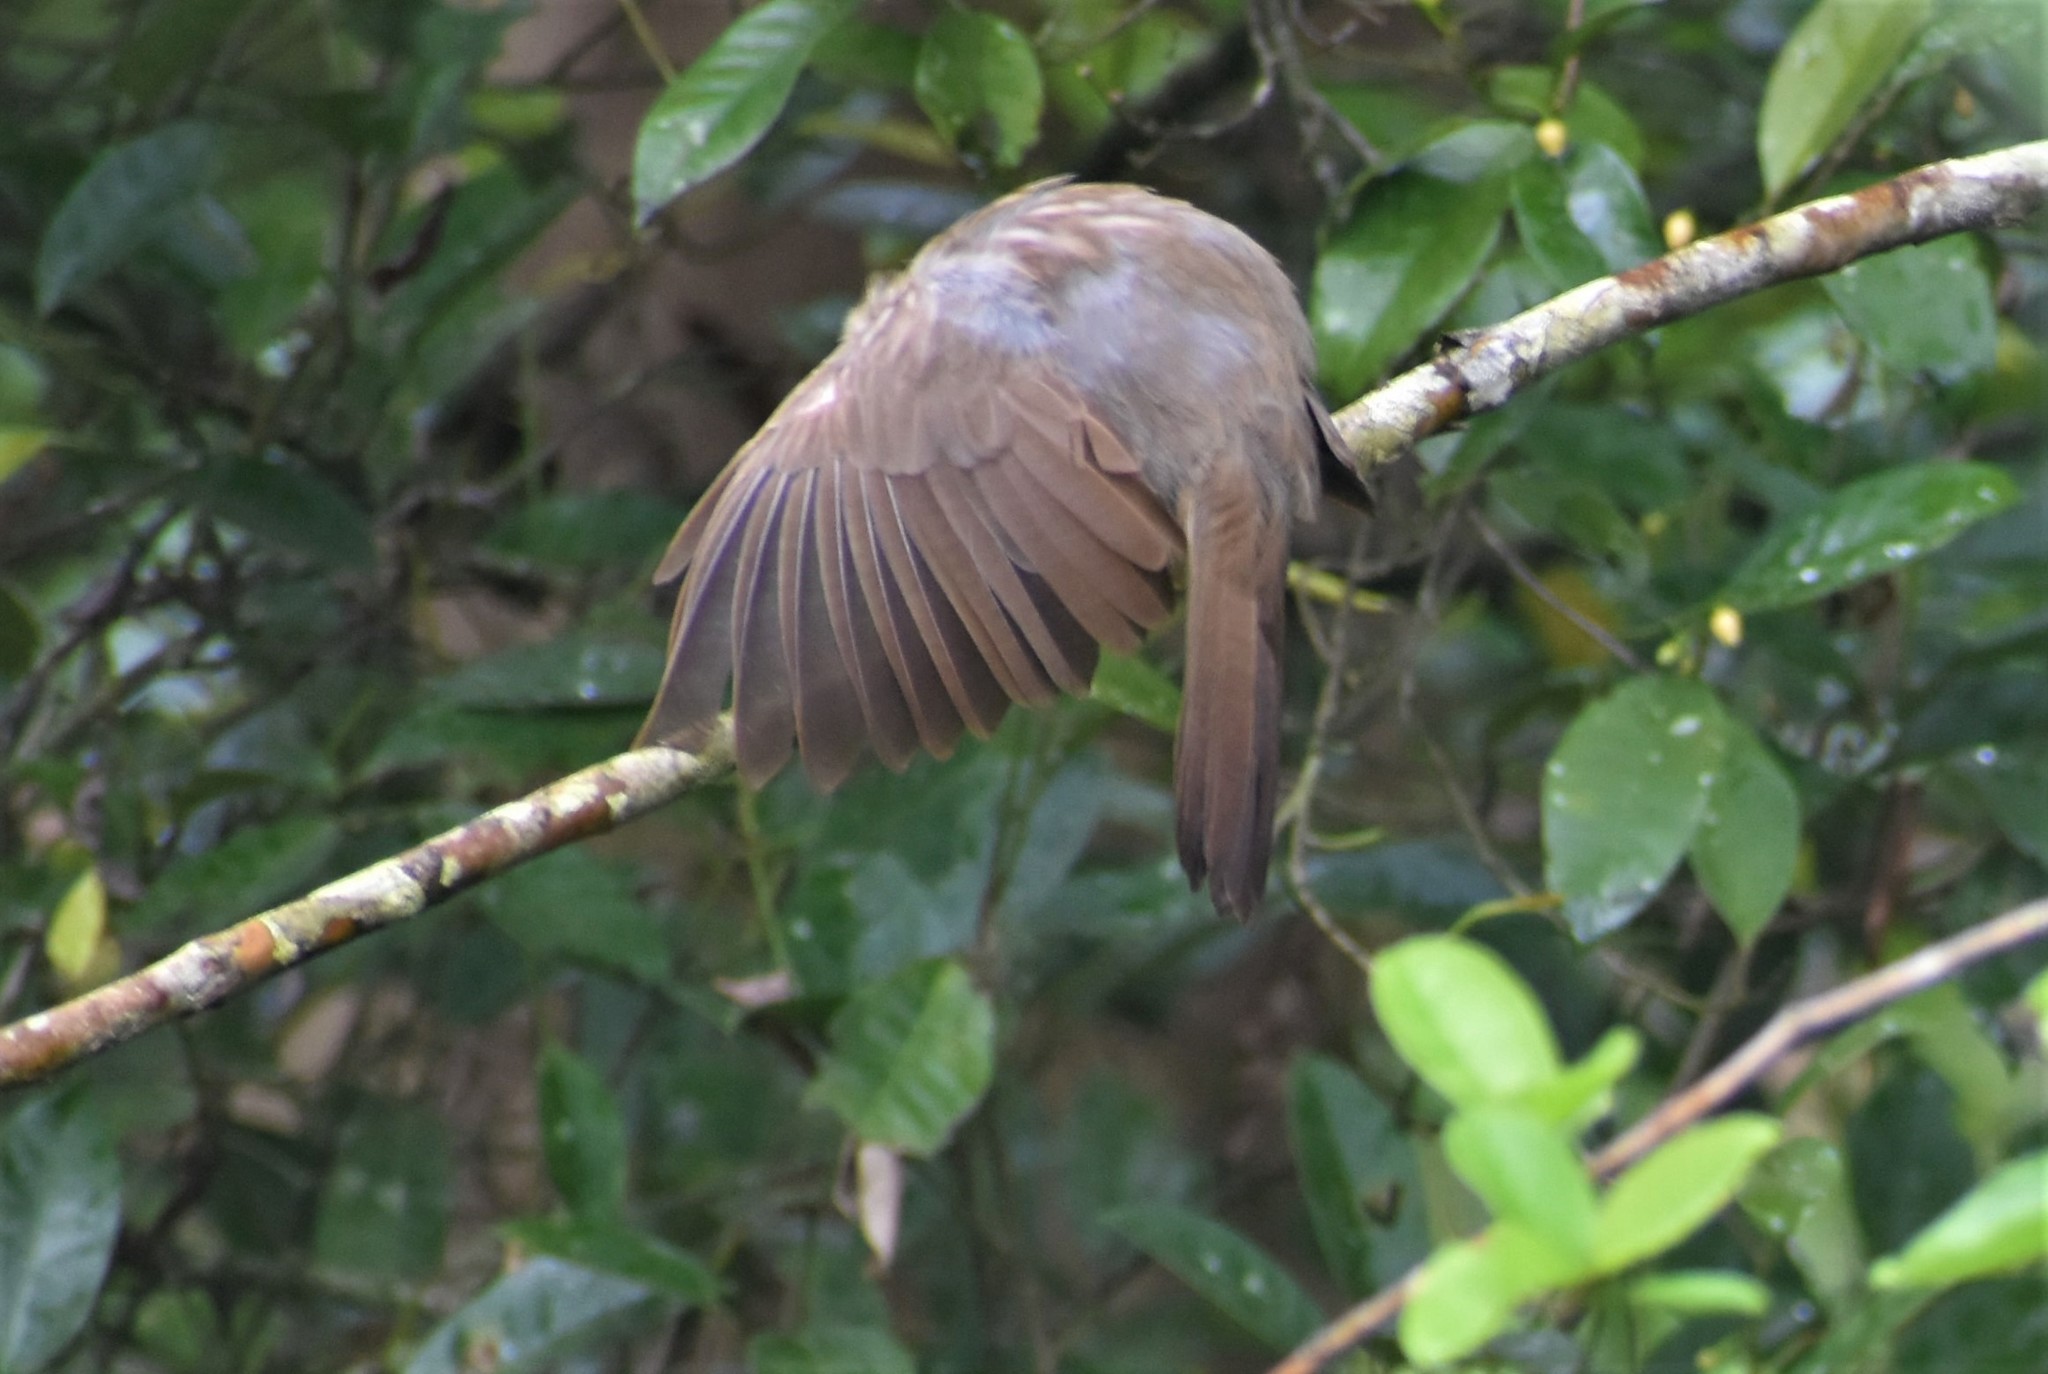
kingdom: Animalia
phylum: Chordata
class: Aves
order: Passeriformes
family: Leiothrichidae
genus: Turdoides
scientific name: Turdoides striata
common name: Jungle babbler
